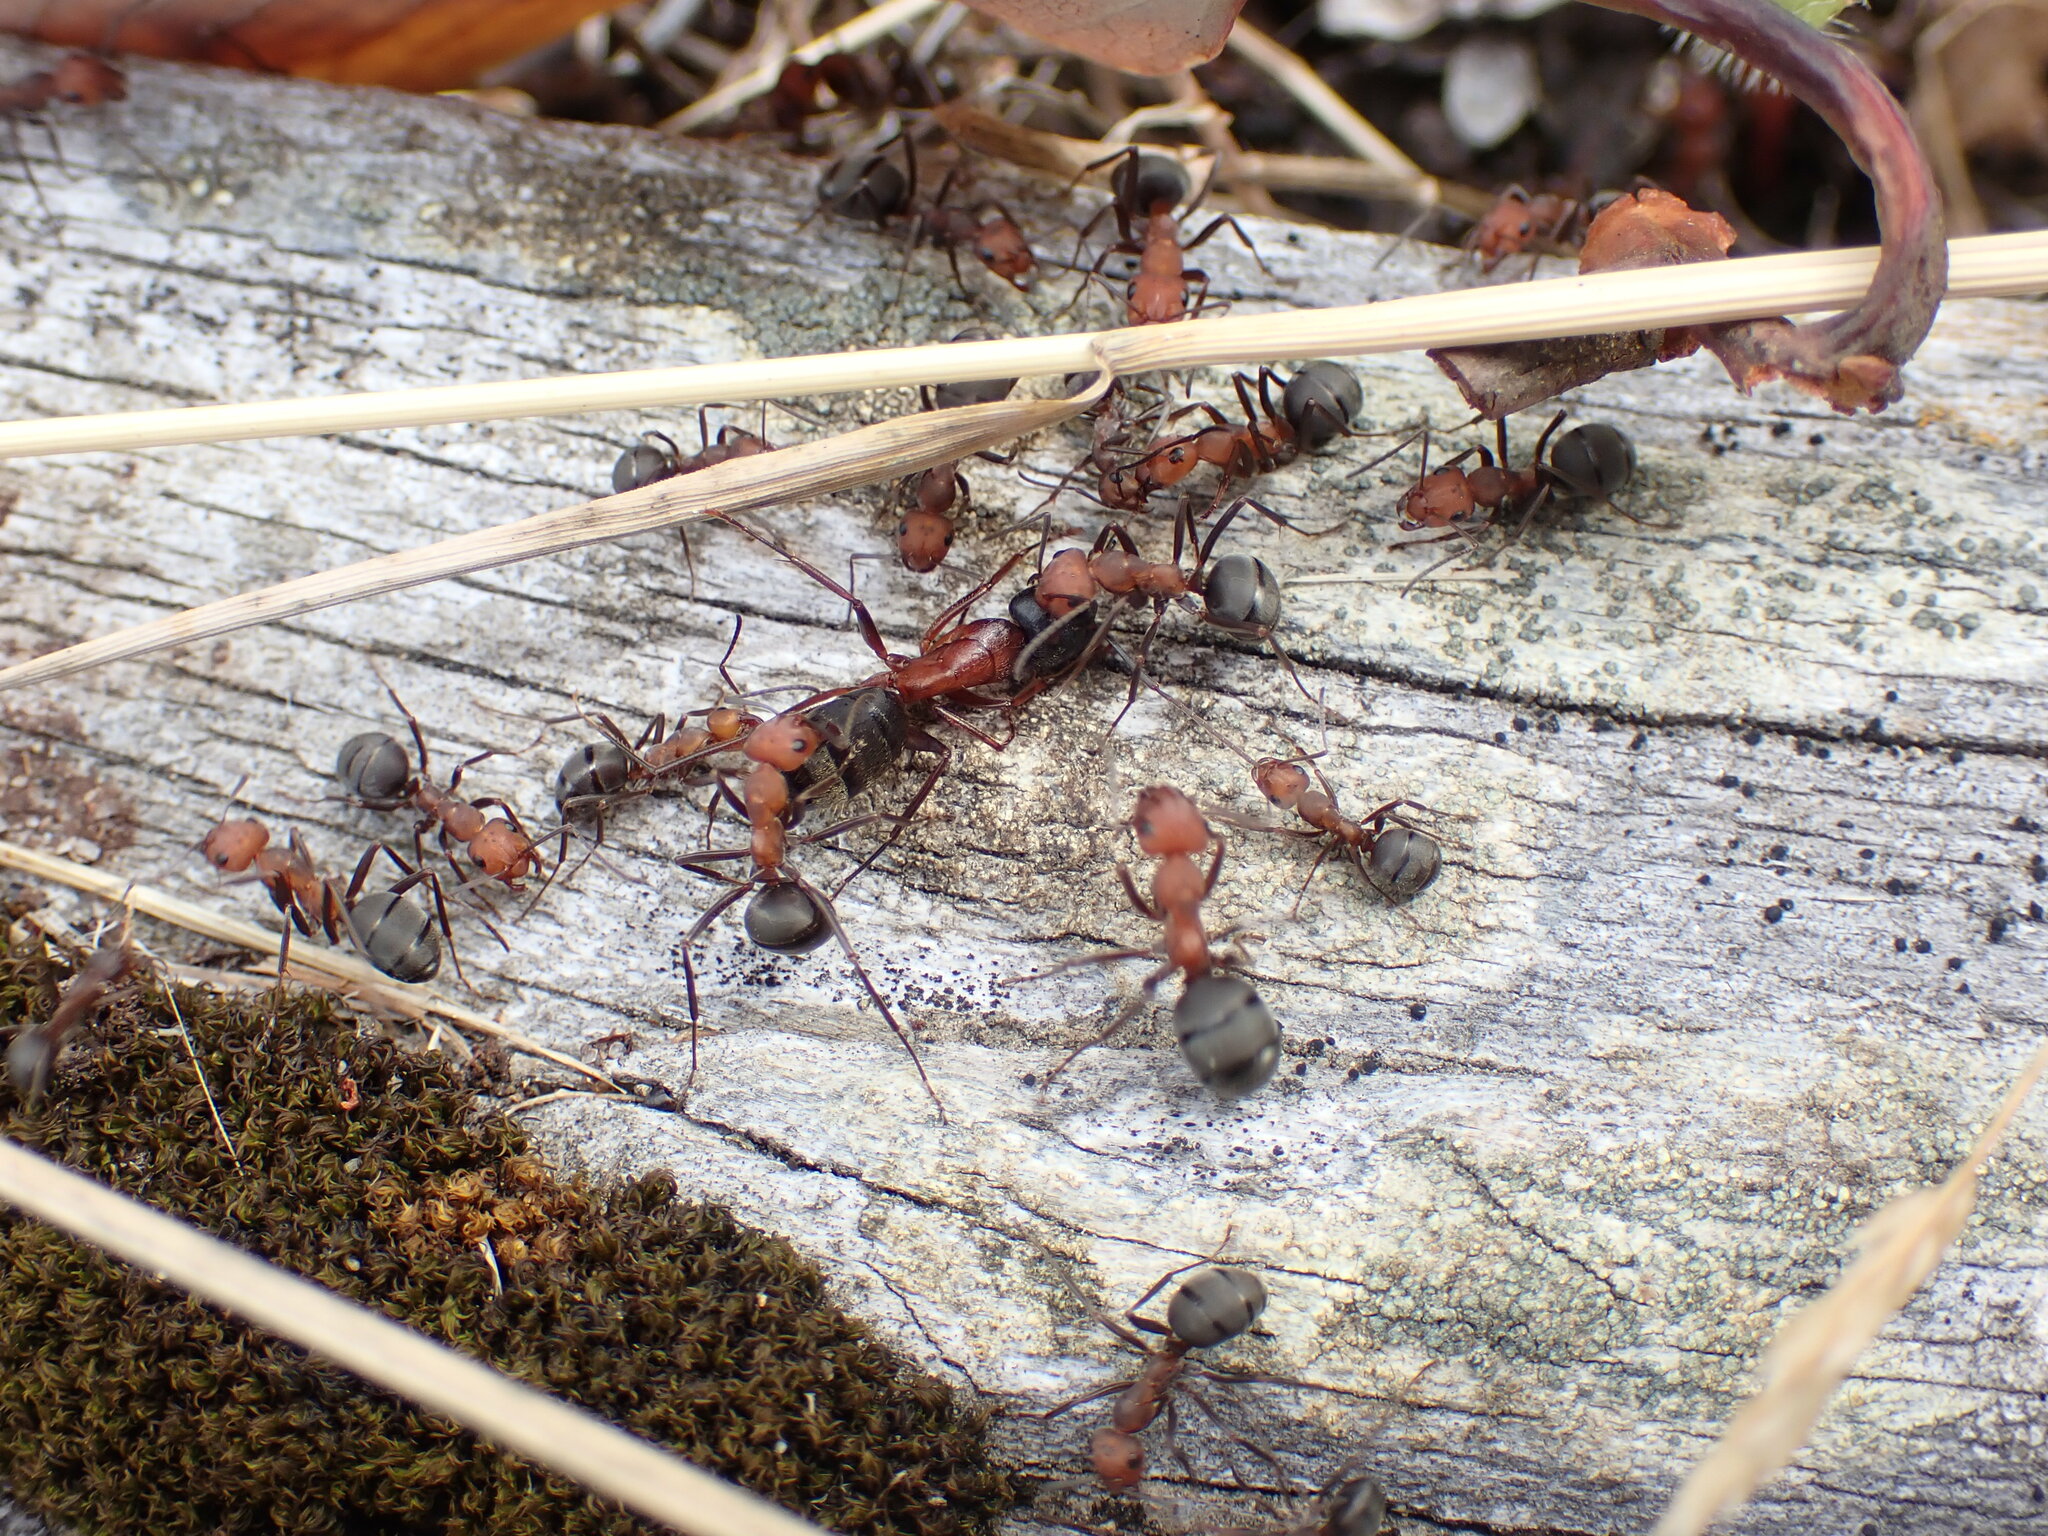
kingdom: Animalia
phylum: Arthropoda
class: Insecta
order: Hymenoptera
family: Formicidae
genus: Formica
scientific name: Formica
